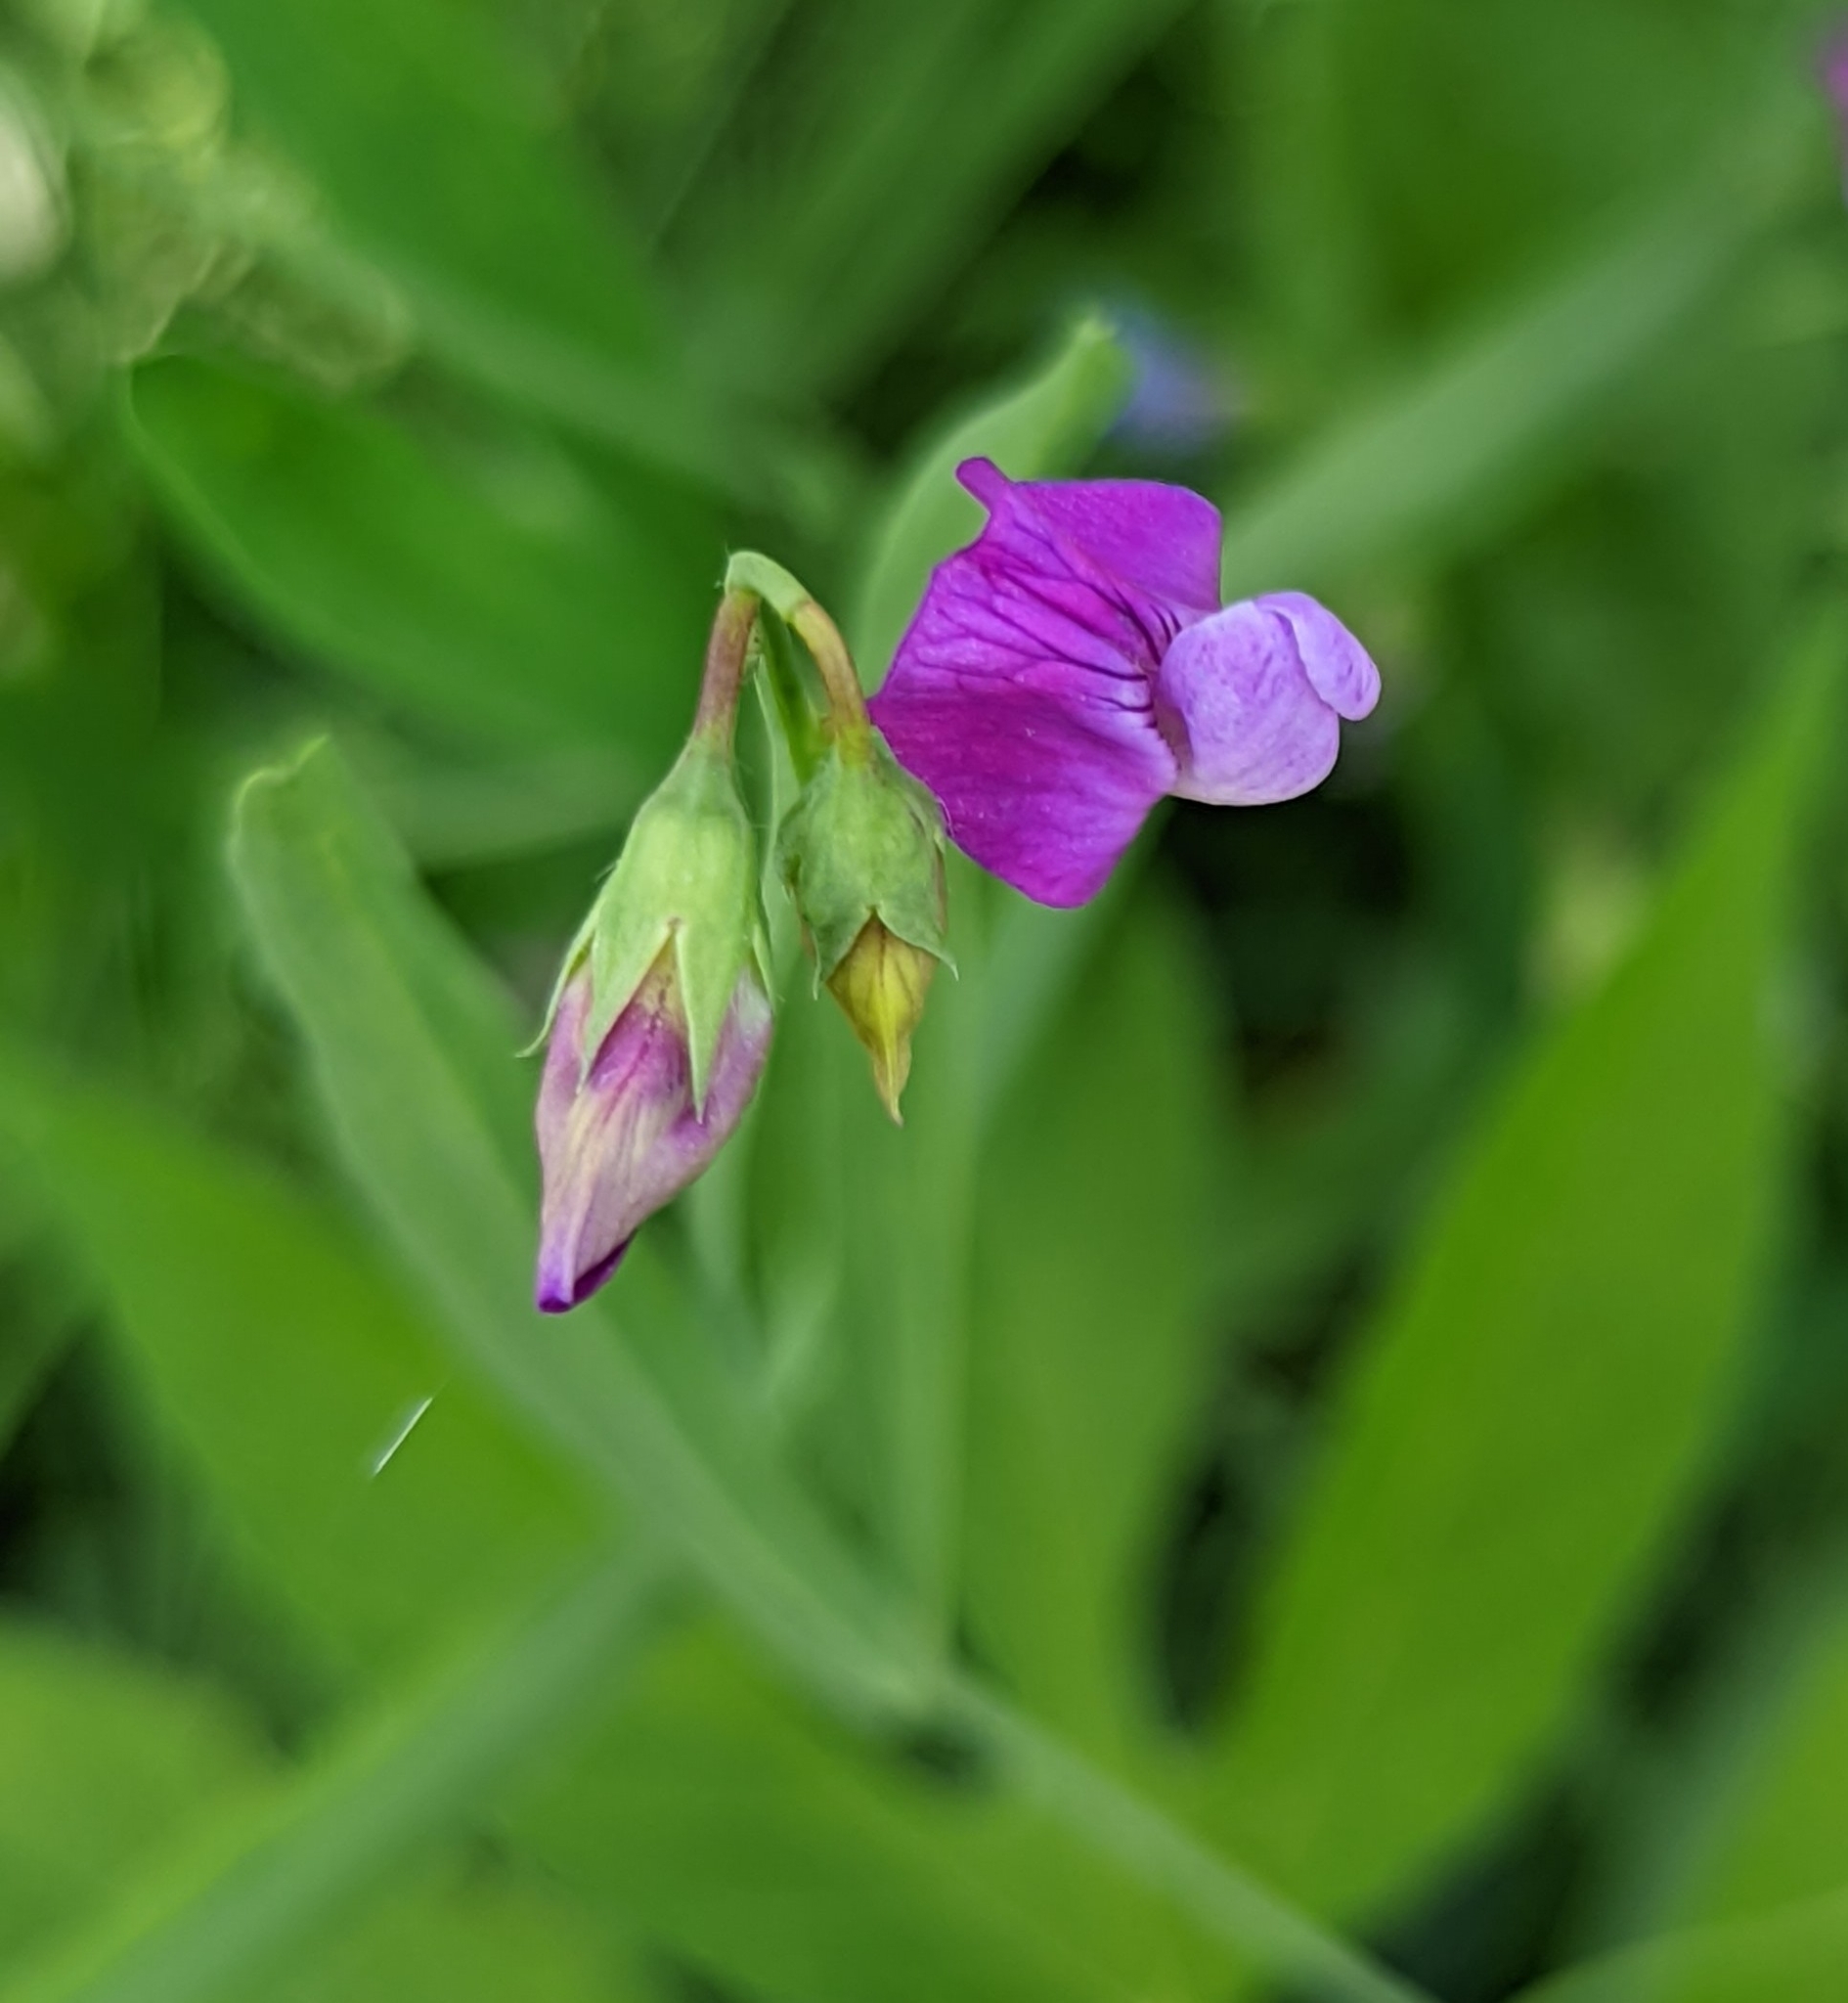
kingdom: Plantae
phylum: Tracheophyta
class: Magnoliopsida
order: Fabales
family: Fabaceae
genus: Lathyrus
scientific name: Lathyrus hirsutus
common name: Hairy vetchling
